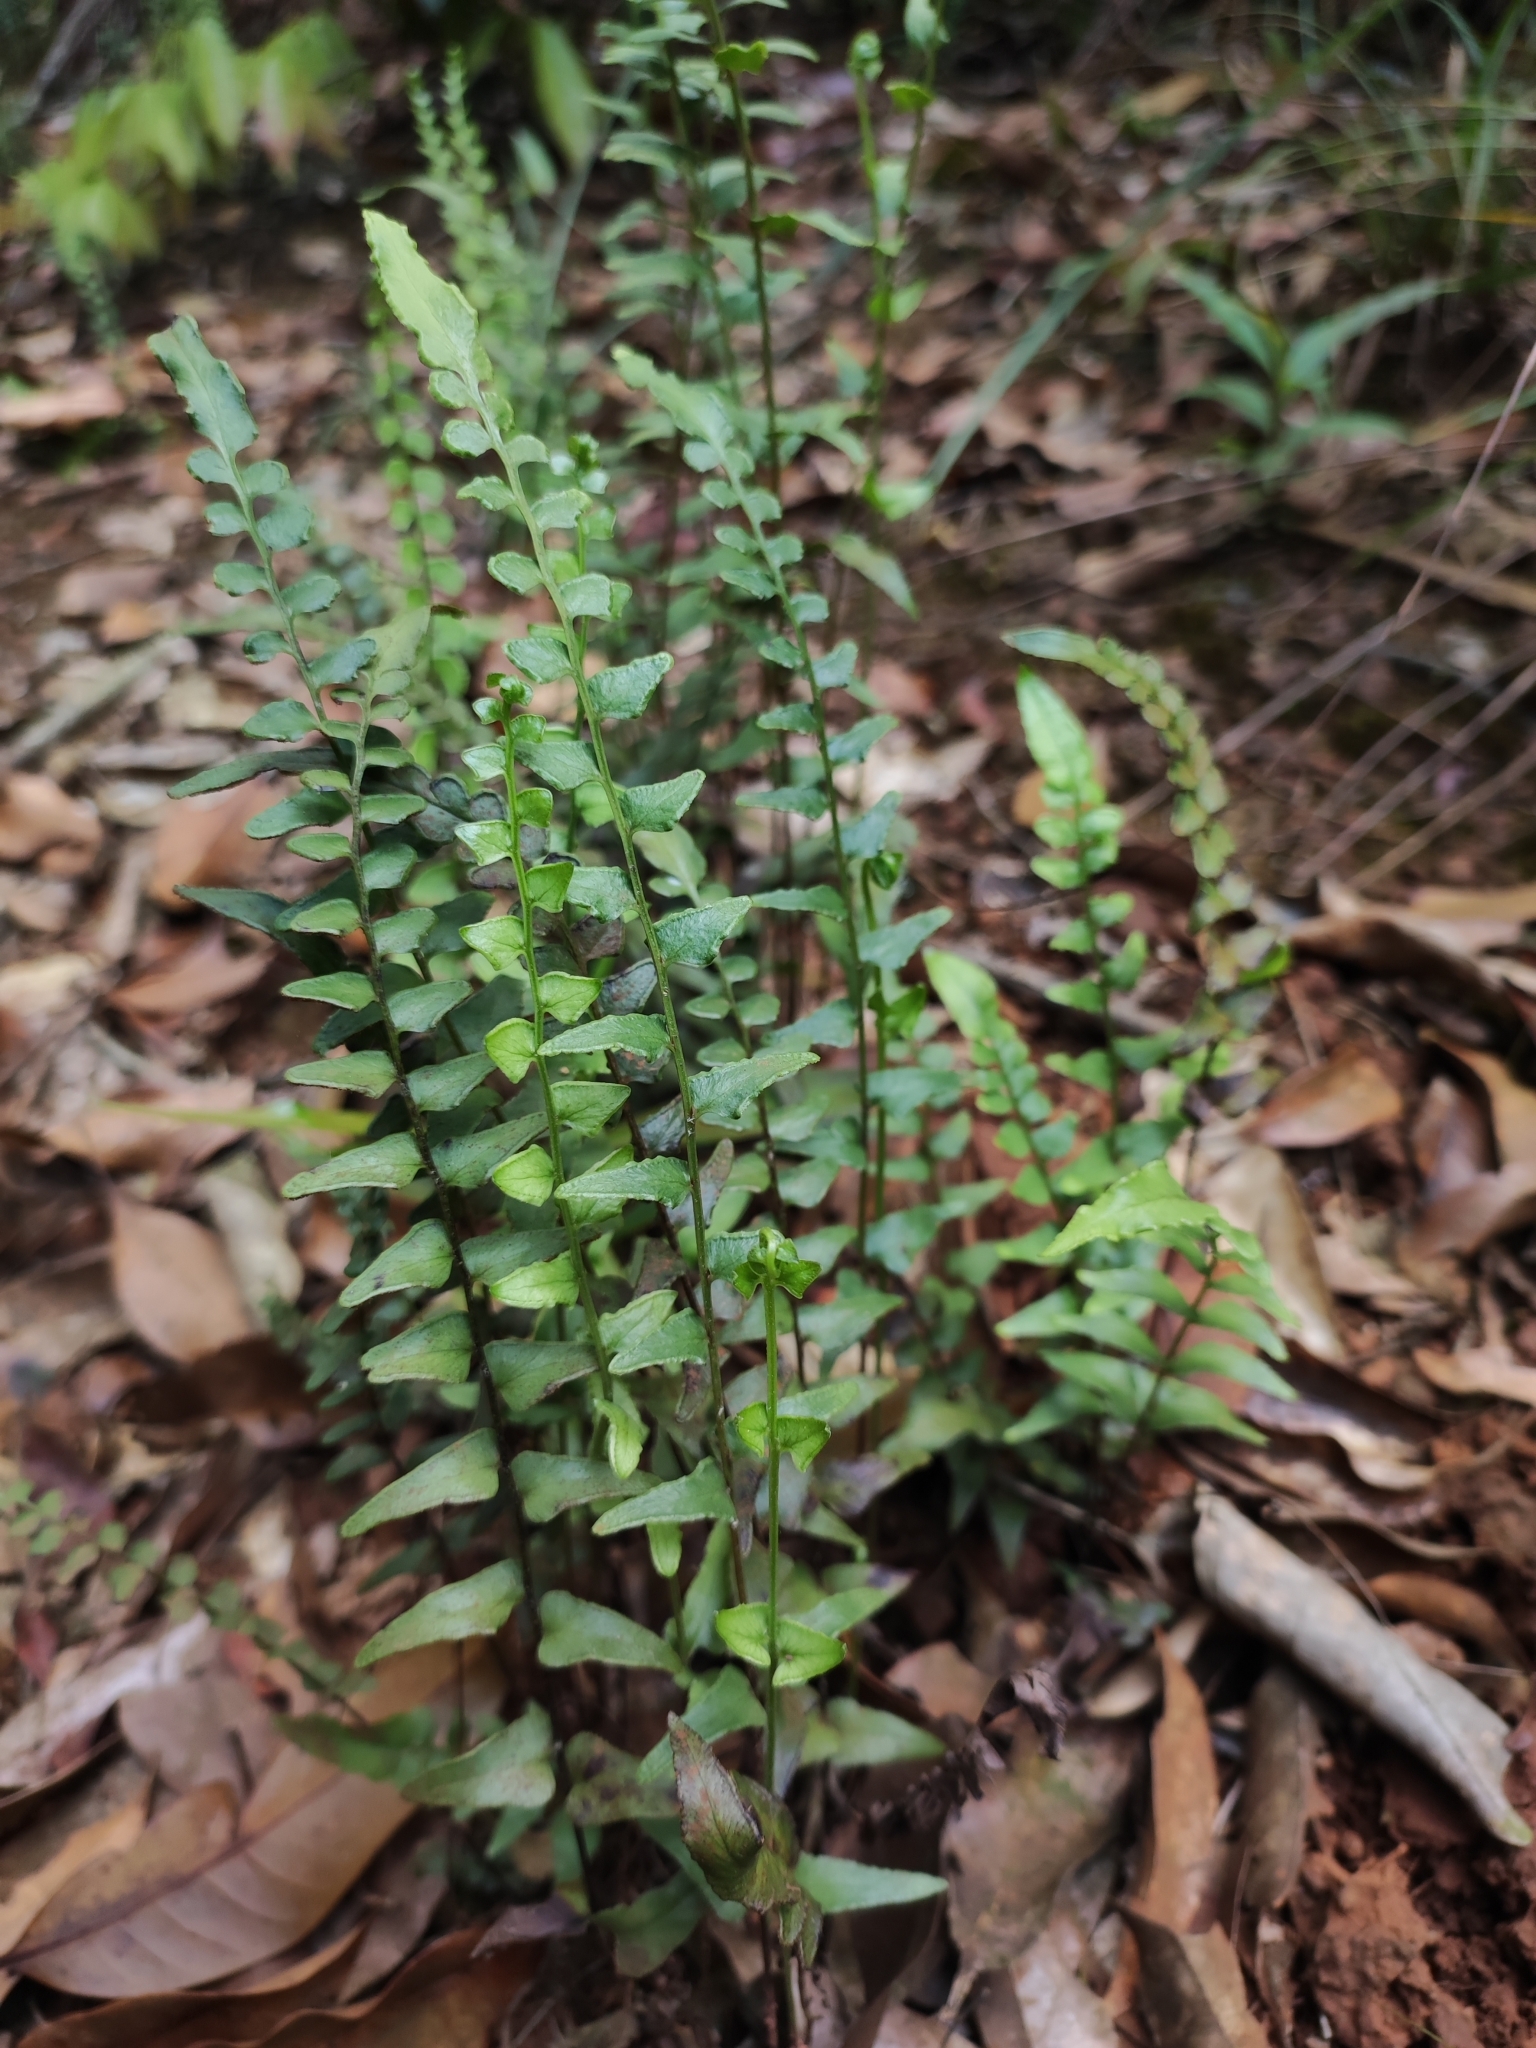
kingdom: Plantae
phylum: Tracheophyta
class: Polypodiopsida
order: Polypodiales
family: Lindsaeaceae
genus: Lindsaea
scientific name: Lindsaea heterophylla
